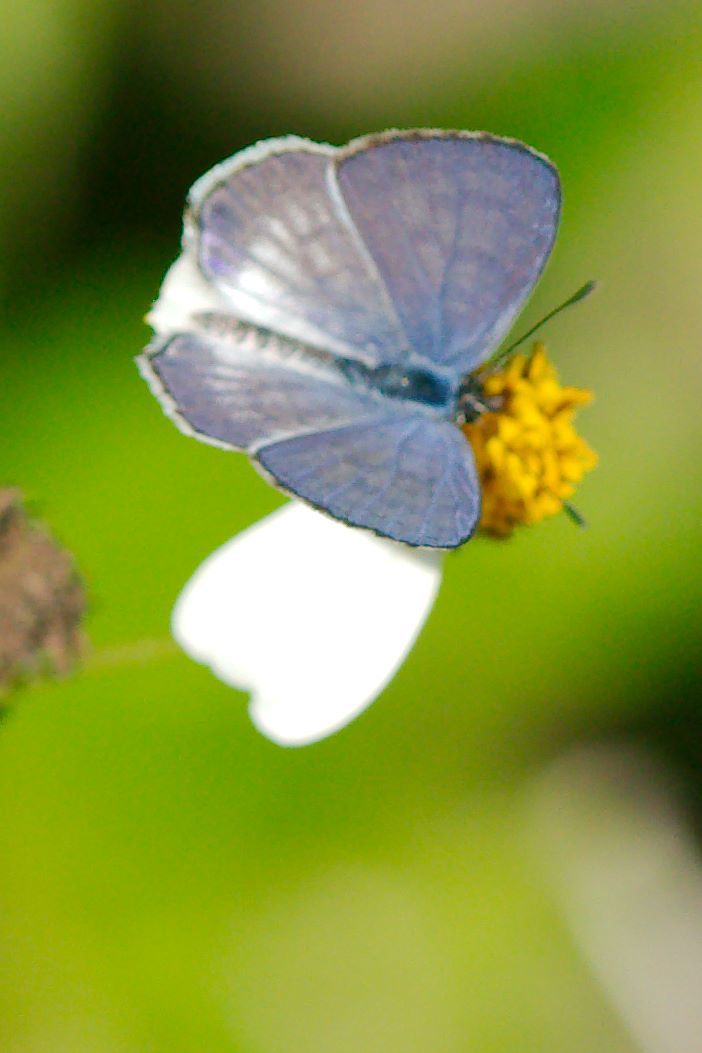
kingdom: Animalia
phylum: Arthropoda
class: Insecta
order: Lepidoptera
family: Lycaenidae
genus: Leptotes
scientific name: Leptotes cassius
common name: Cassius blue
